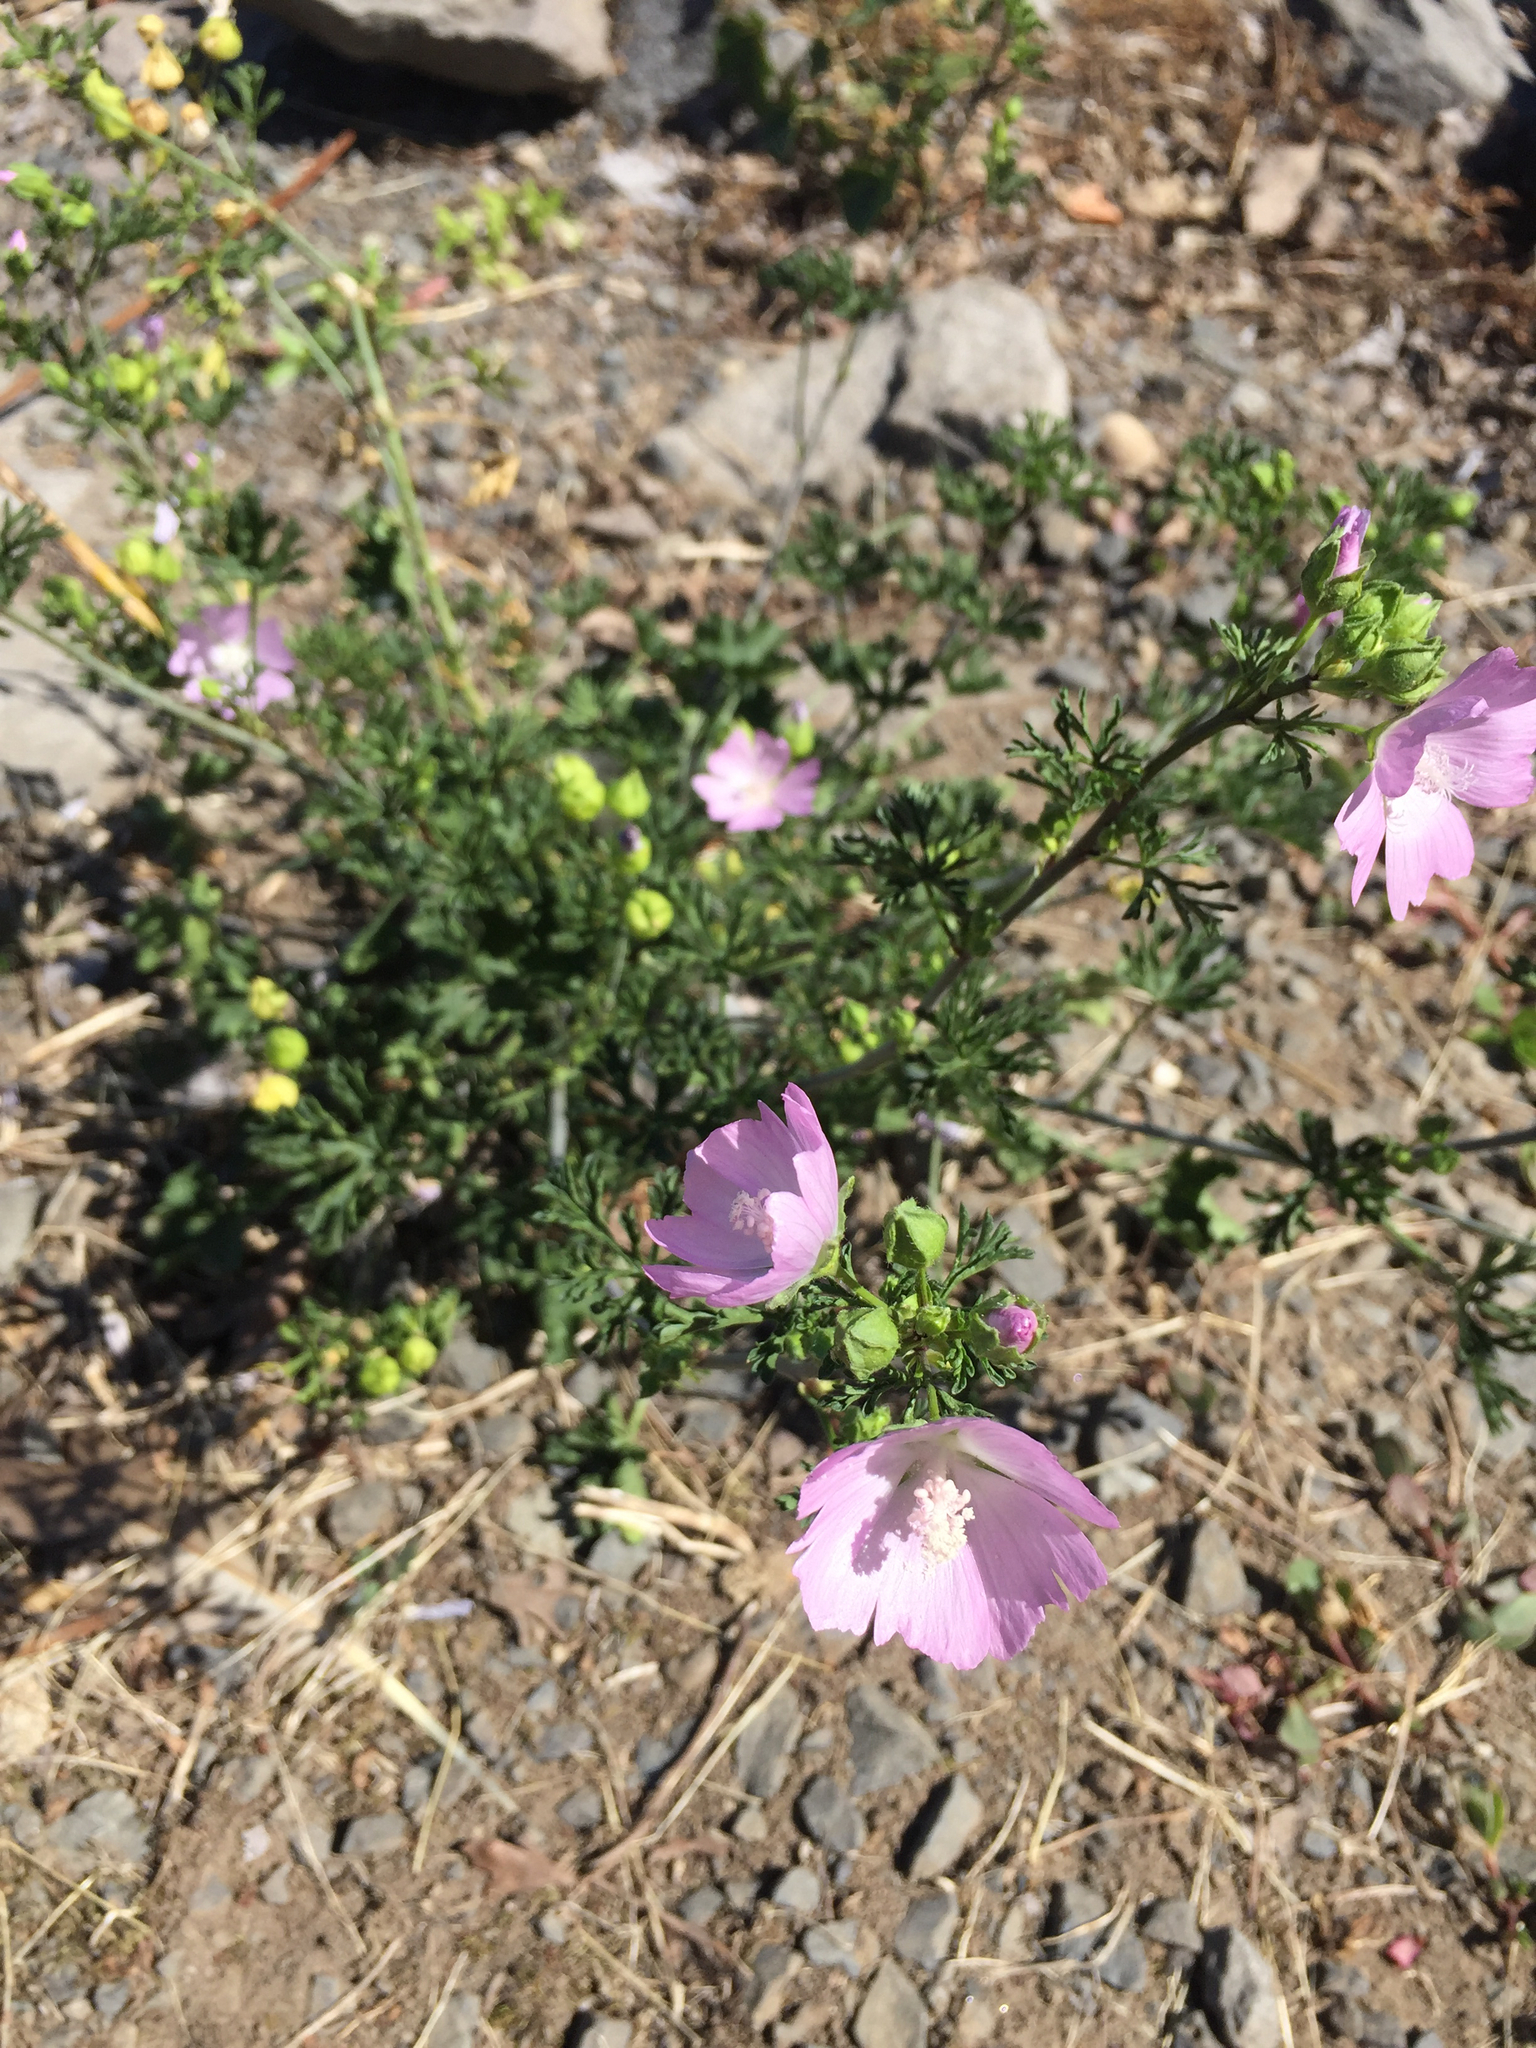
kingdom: Plantae
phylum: Tracheophyta
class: Magnoliopsida
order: Malvales
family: Malvaceae
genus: Malva
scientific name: Malva moschata
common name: Musk mallow
